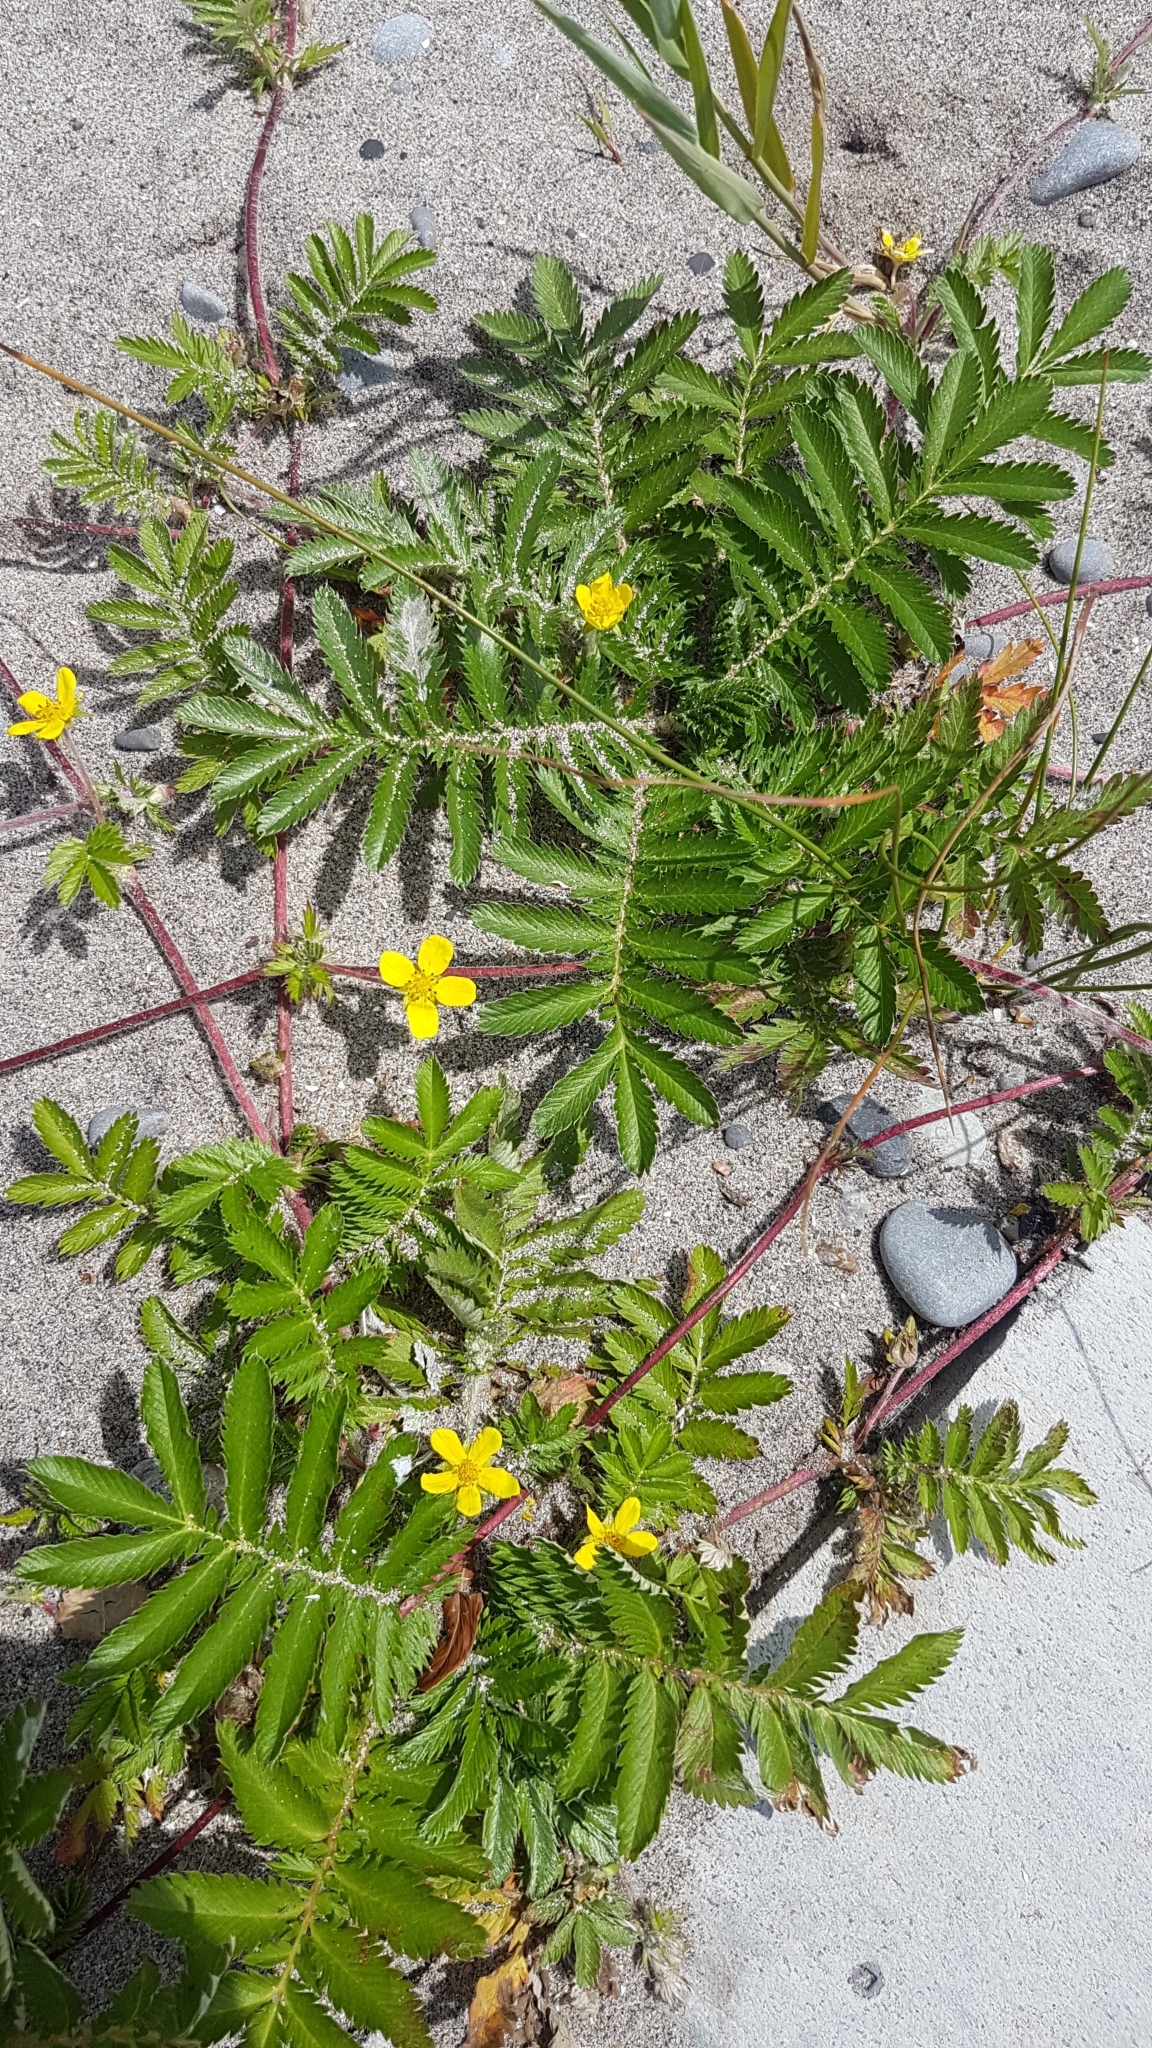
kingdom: Plantae
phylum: Tracheophyta
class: Magnoliopsida
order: Rosales
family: Rosaceae
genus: Argentina
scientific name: Argentina anserina
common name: Common silverweed
